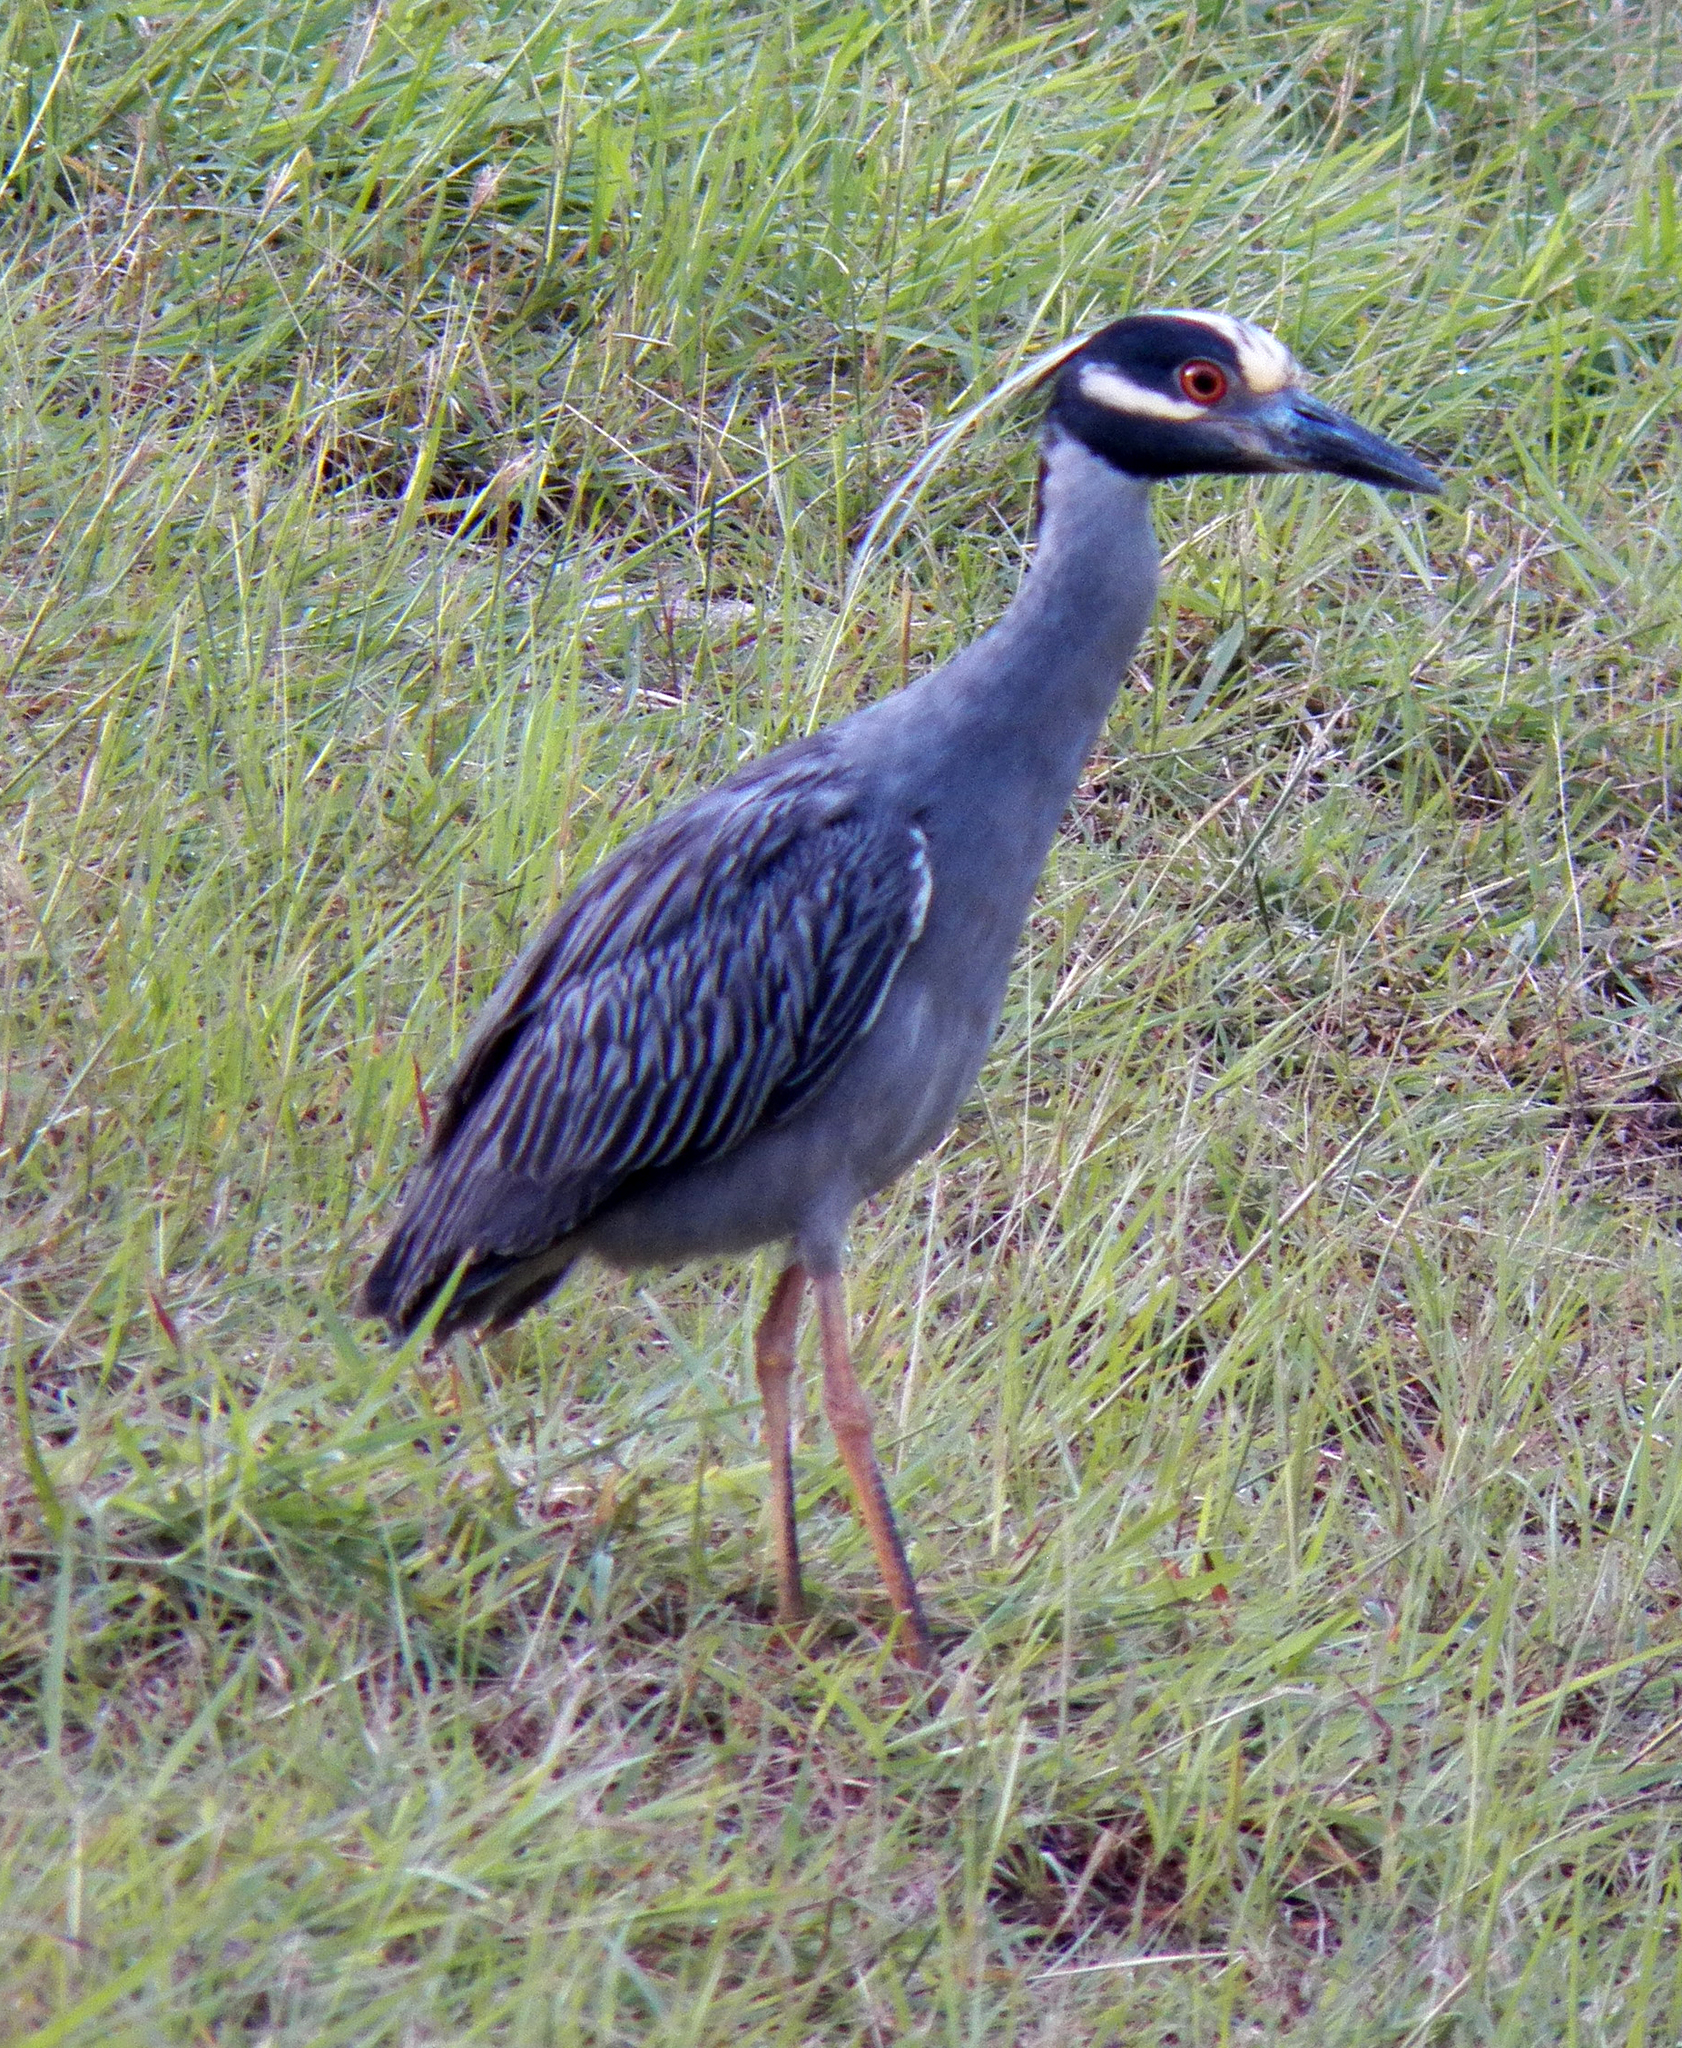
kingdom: Animalia
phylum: Chordata
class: Aves
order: Pelecaniformes
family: Ardeidae
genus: Nyctanassa
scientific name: Nyctanassa violacea
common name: Yellow-crowned night heron
